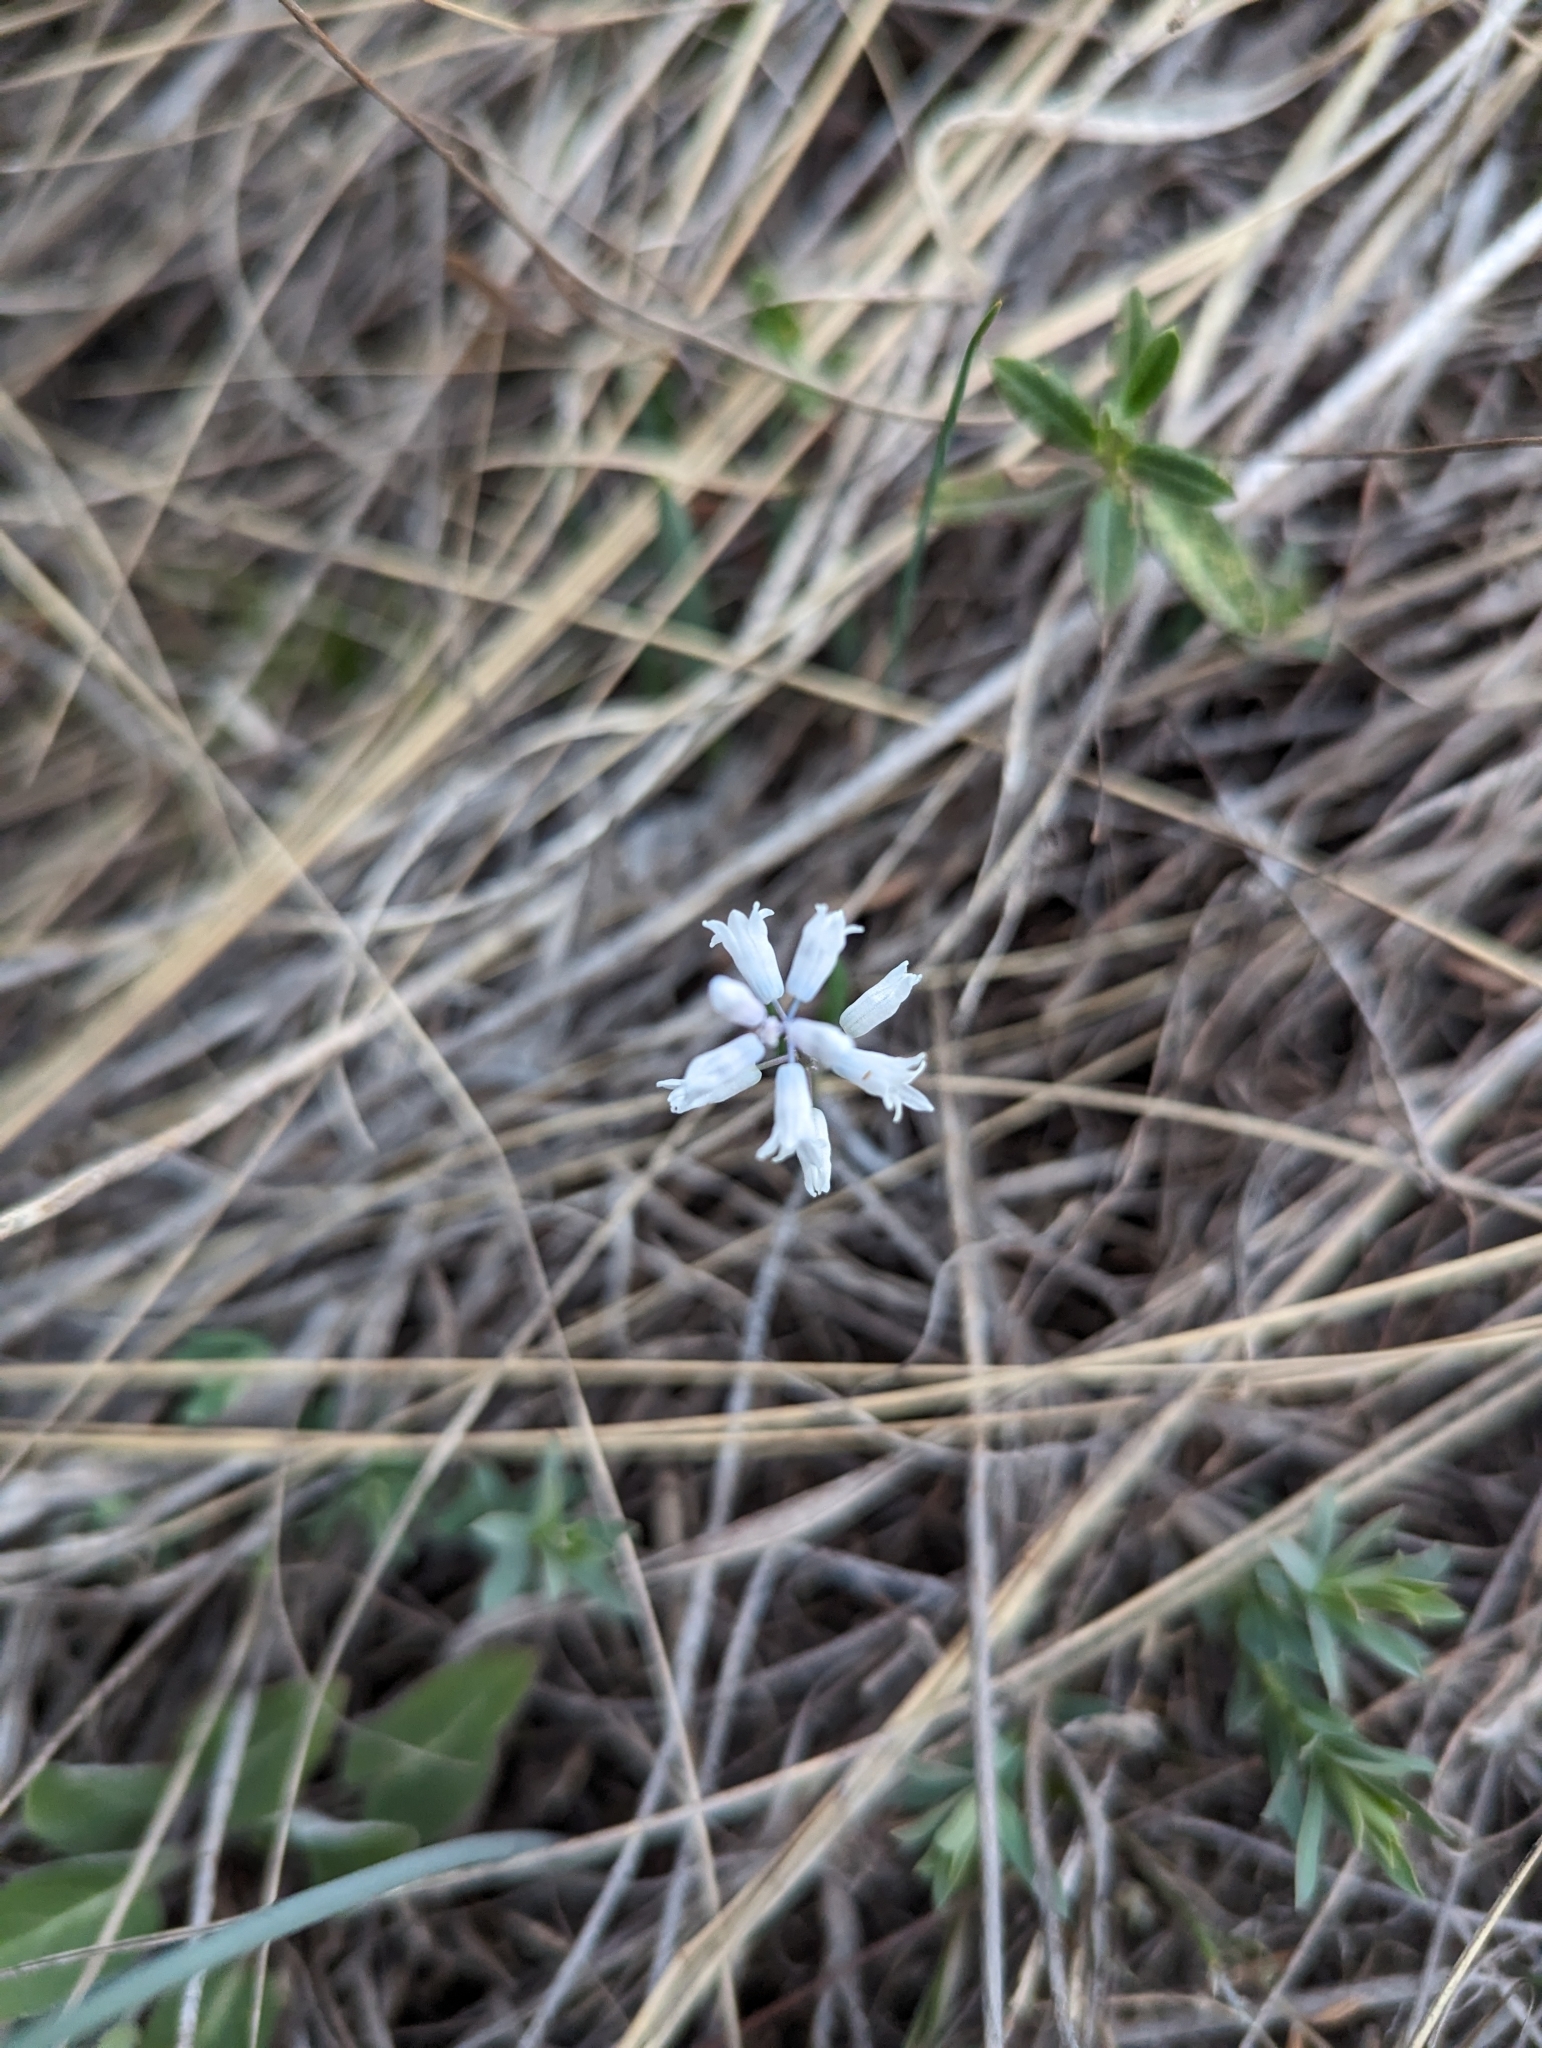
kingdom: Plantae
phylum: Tracheophyta
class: Liliopsida
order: Asparagales
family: Asparagaceae
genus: Hyacinthella
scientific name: Hyacinthella leucophaea
